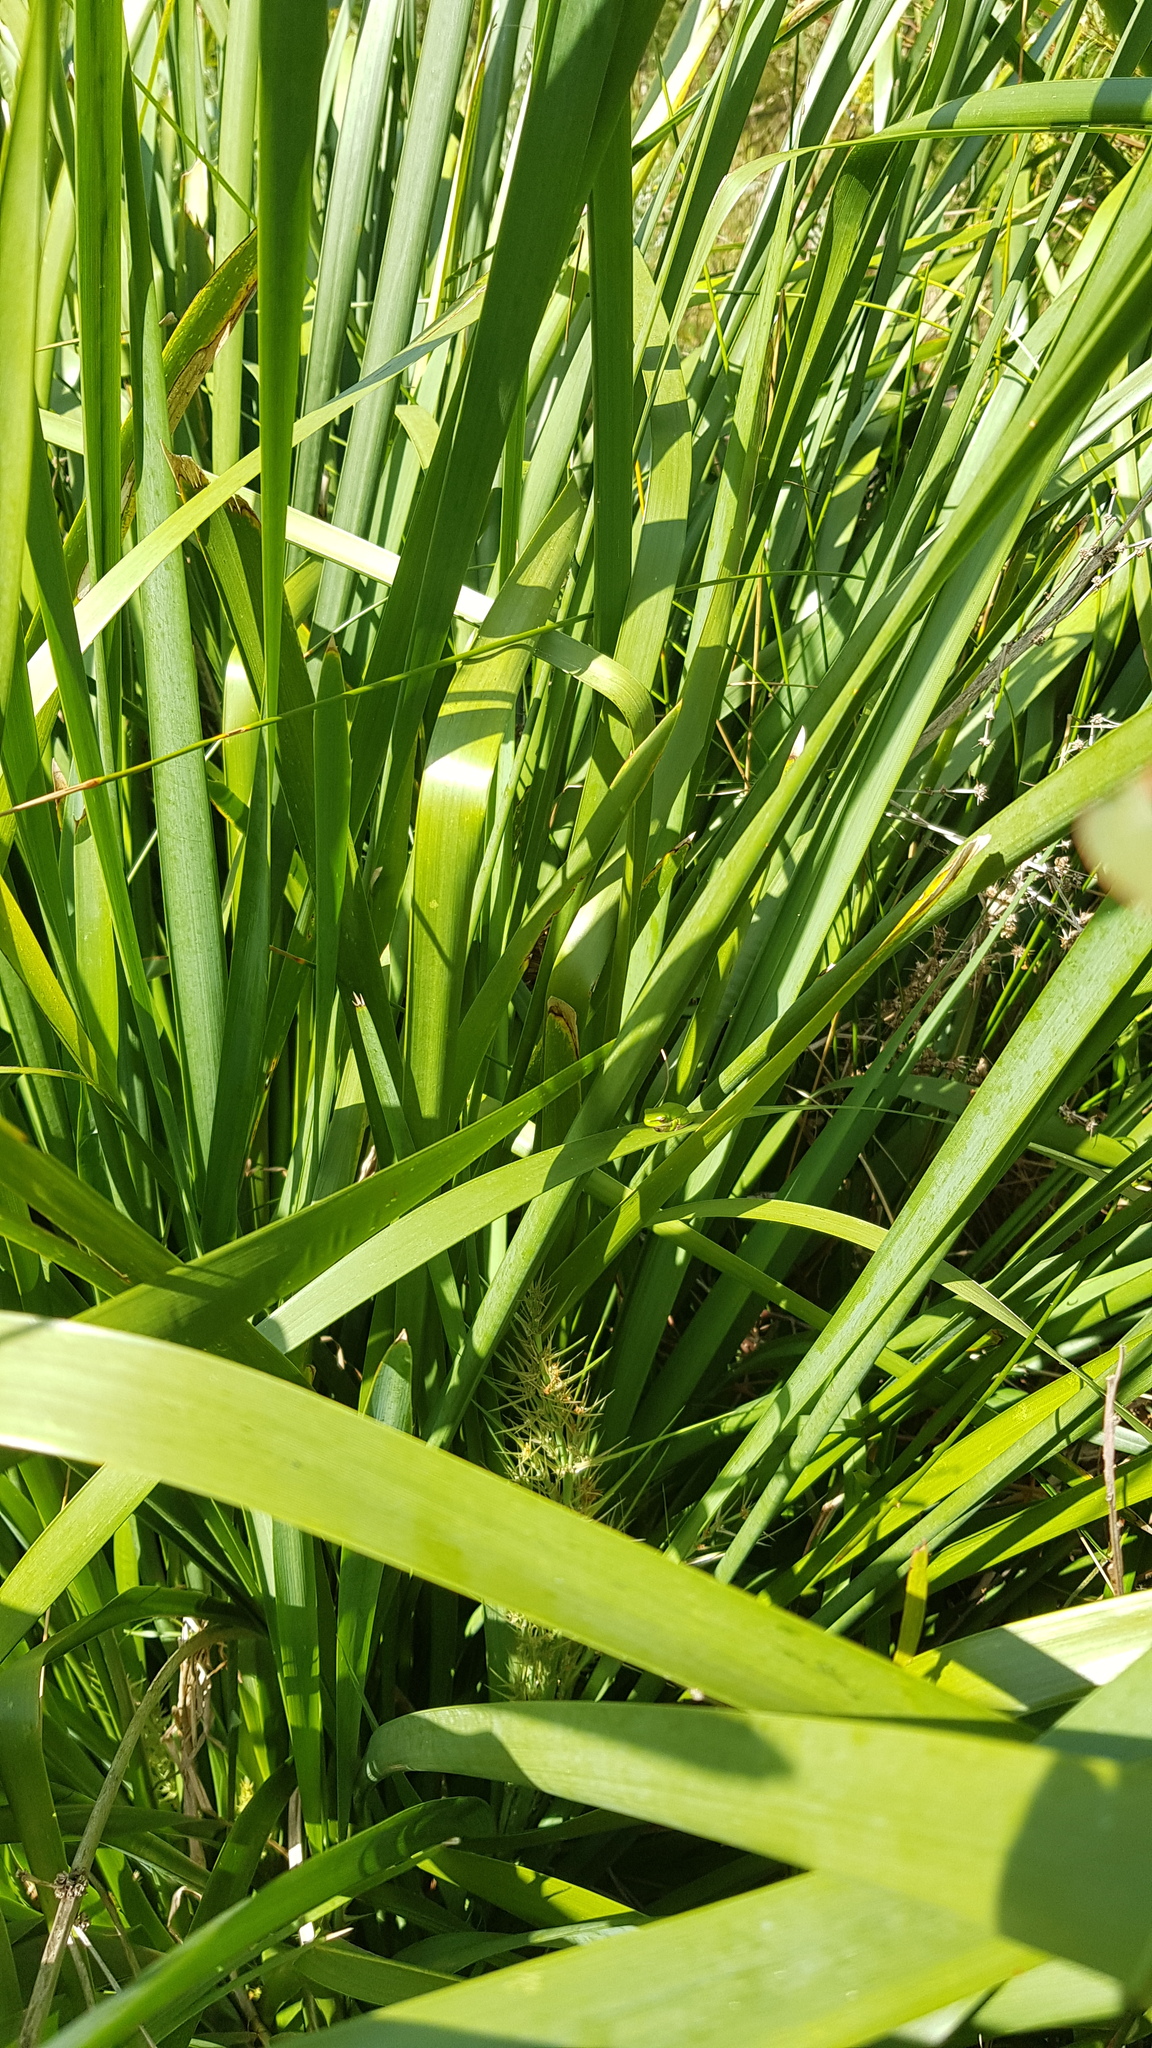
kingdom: Animalia
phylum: Chordata
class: Amphibia
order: Anura
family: Pelodryadidae
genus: Litoria
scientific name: Litoria fallax
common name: Eastern dwarf treefrog
